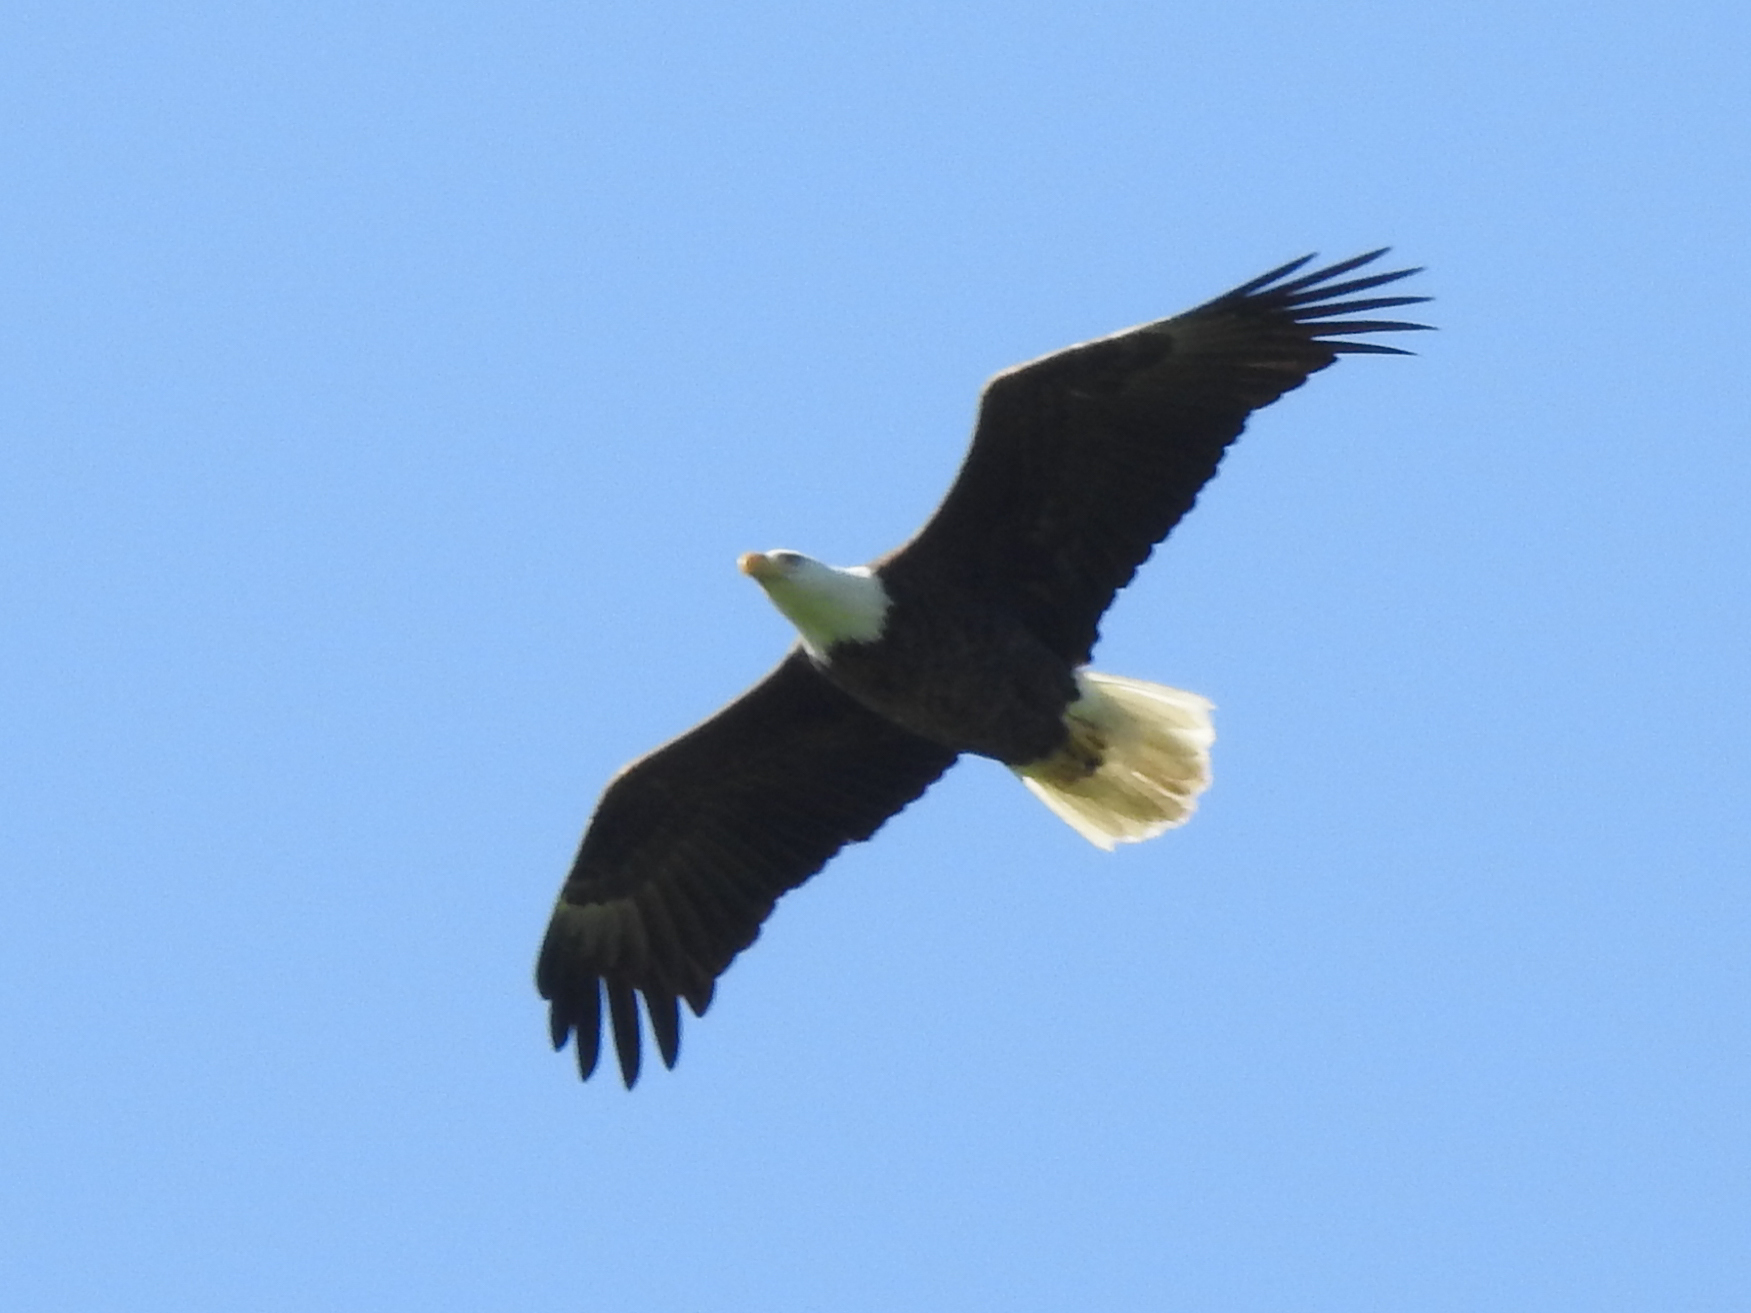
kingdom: Animalia
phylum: Chordata
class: Aves
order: Accipitriformes
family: Accipitridae
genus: Haliaeetus
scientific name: Haliaeetus leucocephalus
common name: Bald eagle
